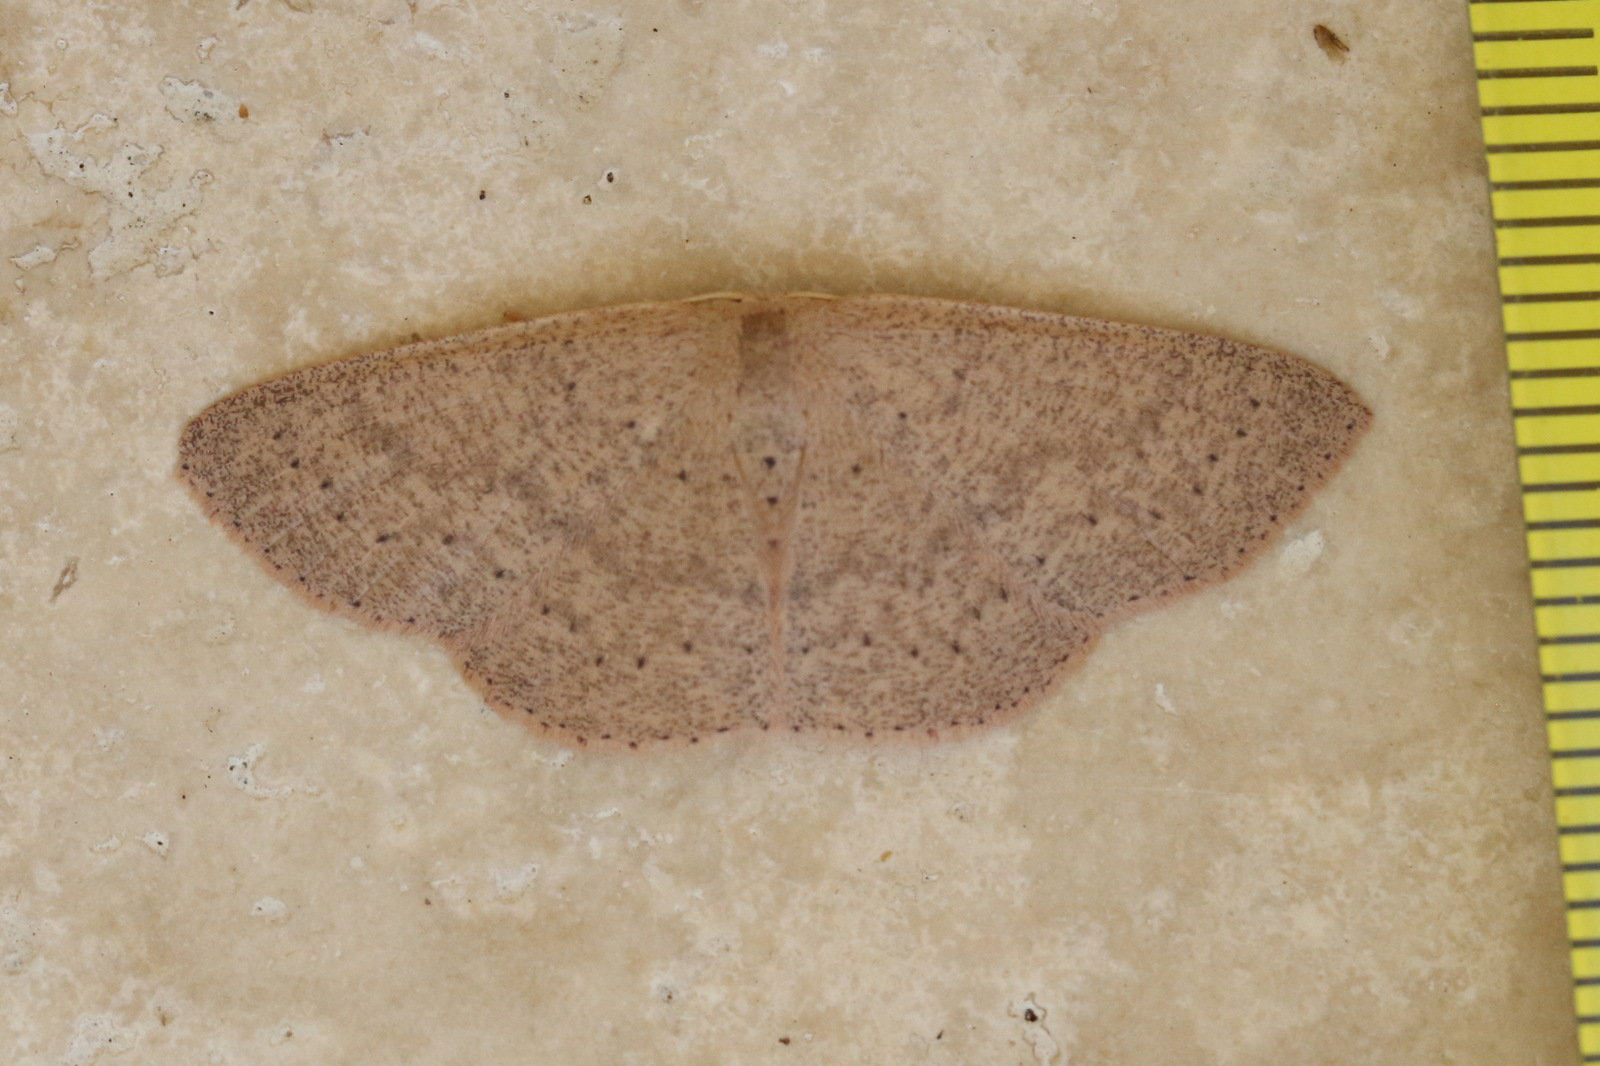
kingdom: Animalia
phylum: Arthropoda
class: Insecta
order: Lepidoptera
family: Geometridae
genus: Cyclophora
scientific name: Cyclophora obstataria
